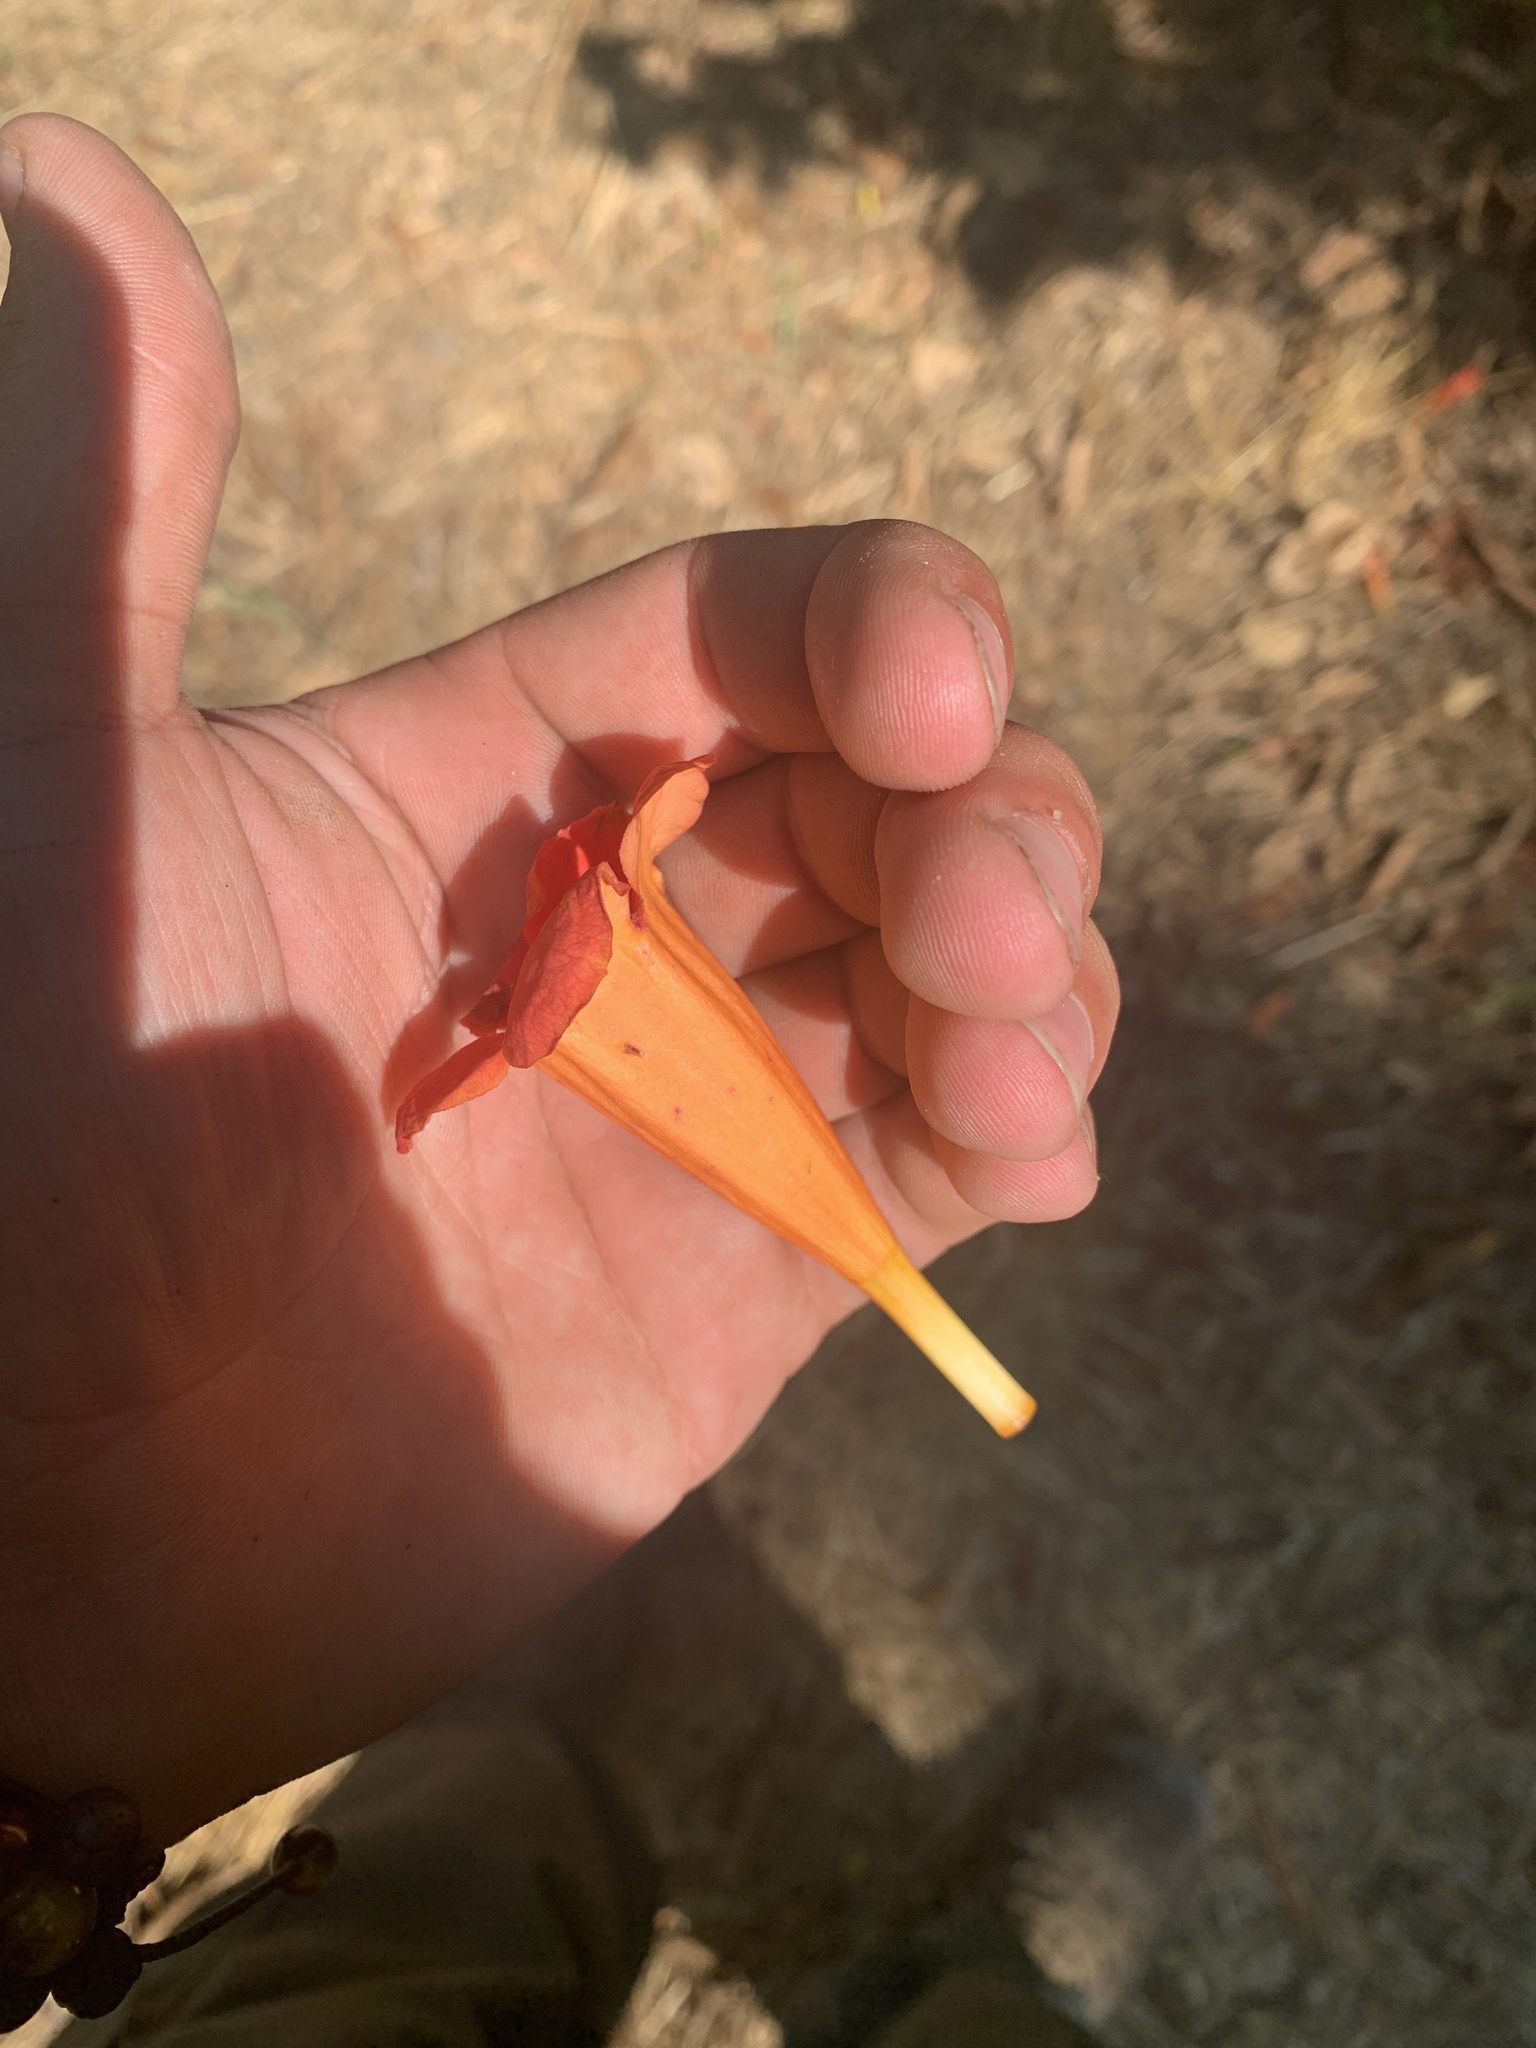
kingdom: Plantae
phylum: Tracheophyta
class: Magnoliopsida
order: Lamiales
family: Bignoniaceae
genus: Campsis
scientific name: Campsis radicans
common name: Trumpet-creeper
